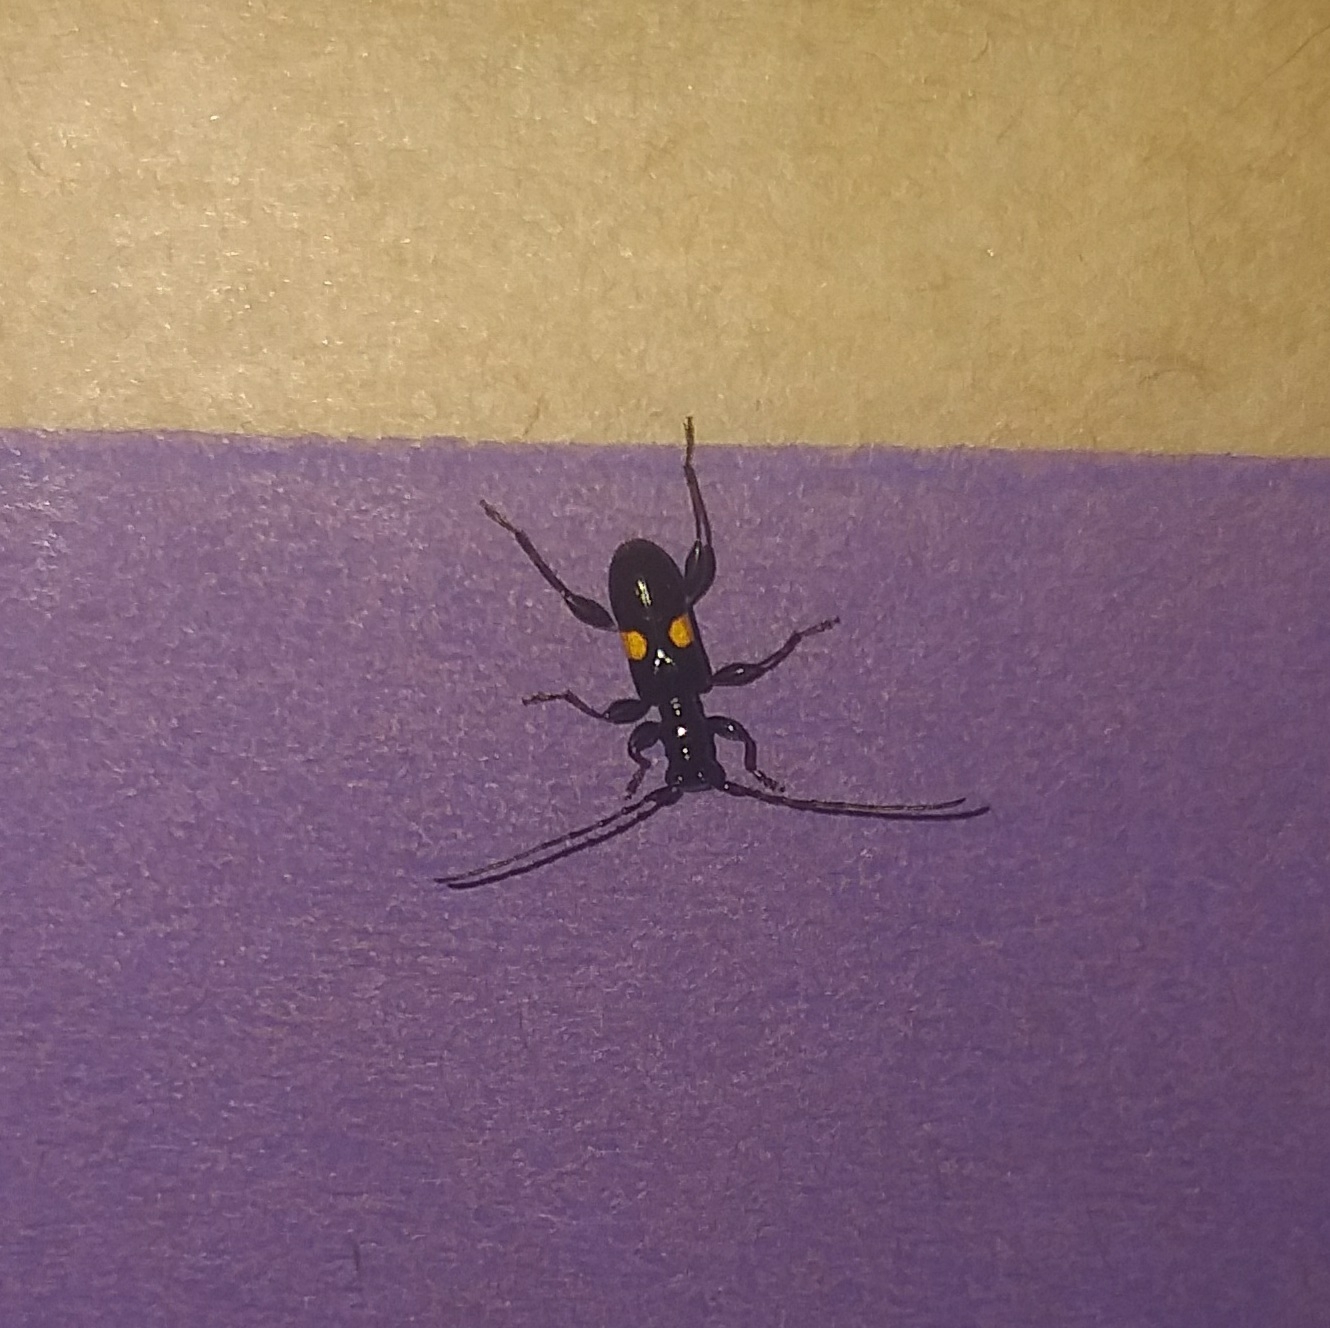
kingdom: Animalia
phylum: Arthropoda
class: Insecta
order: Coleoptera
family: Cerambycidae
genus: Zorion
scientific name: Zorion guttigerum
